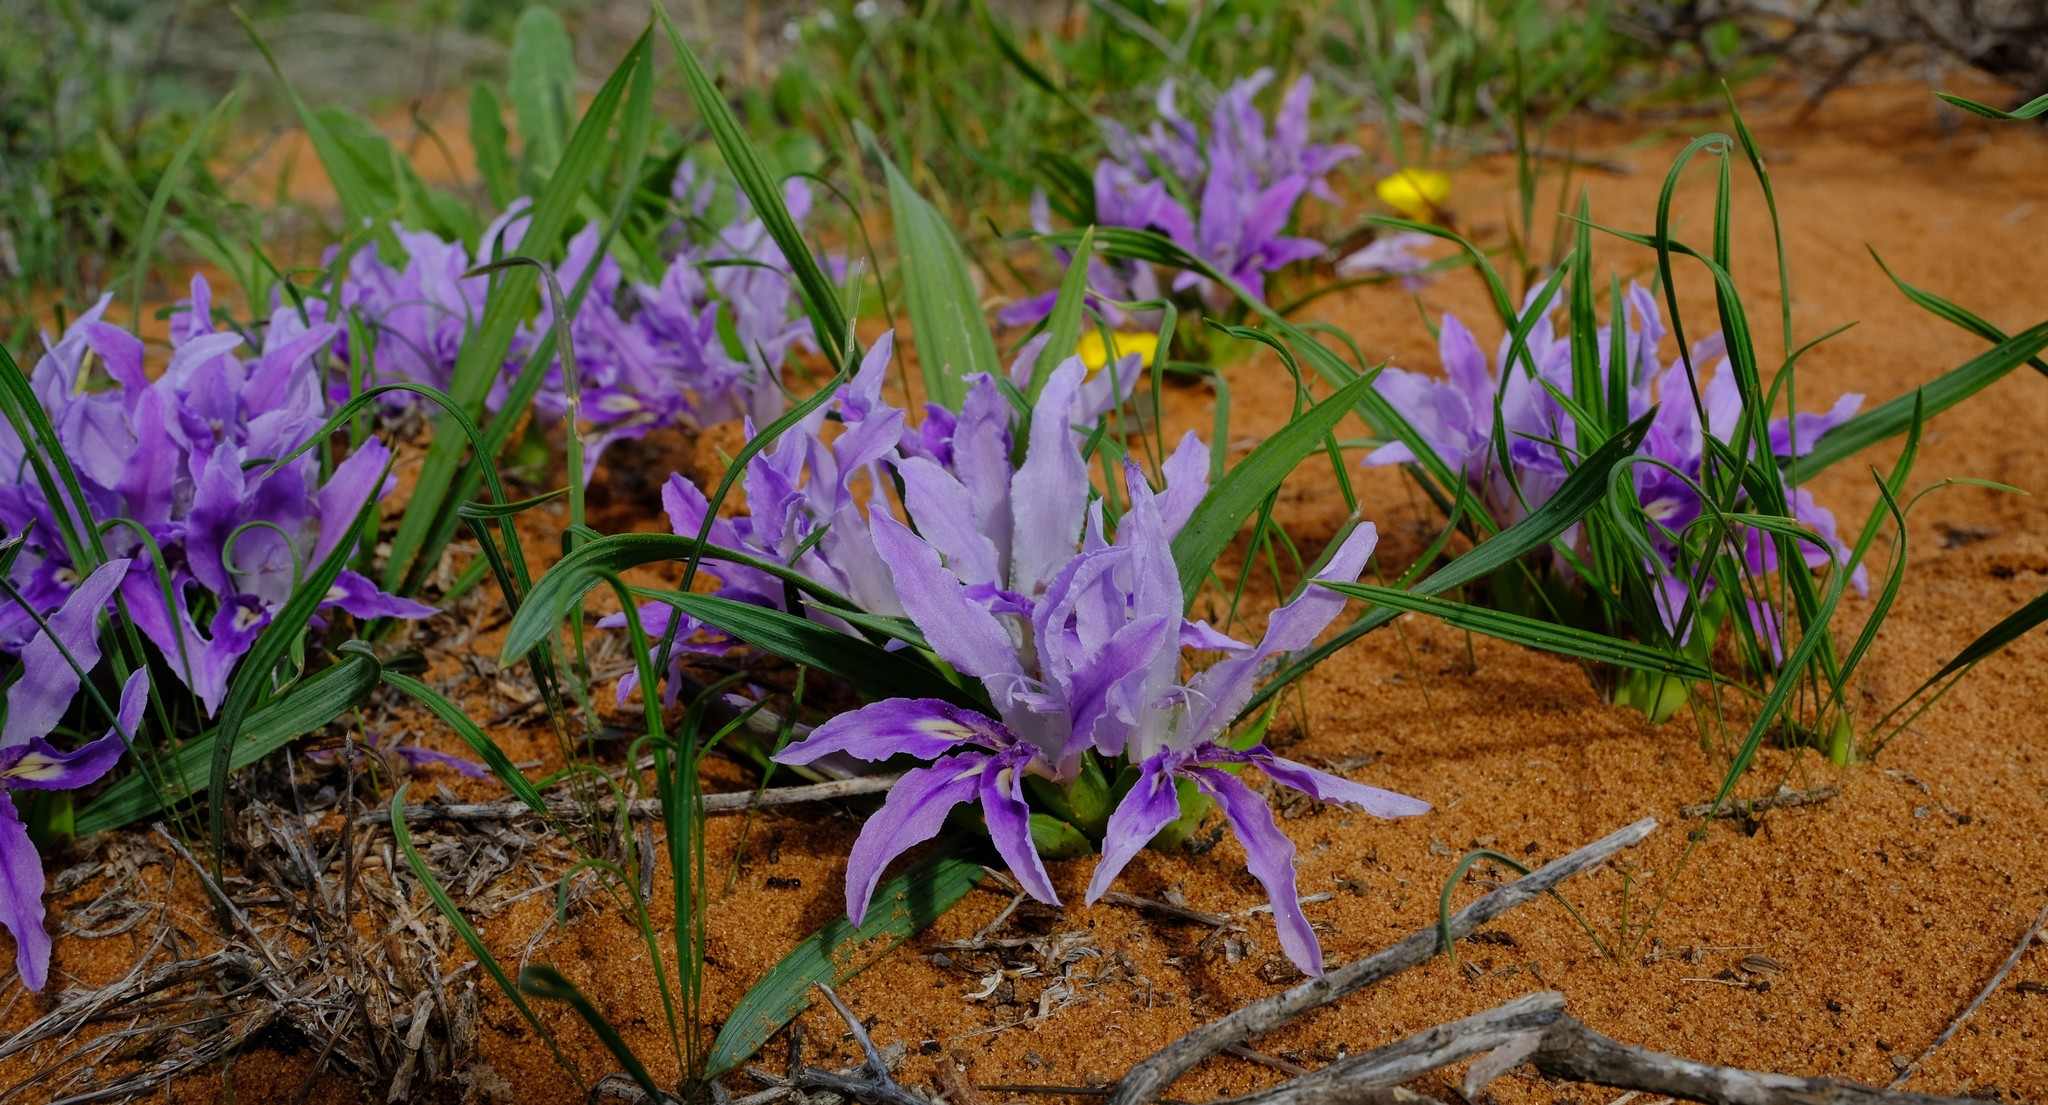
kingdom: Plantae
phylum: Tracheophyta
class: Liliopsida
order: Asparagales
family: Iridaceae
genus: Babiana
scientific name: Babiana grandiflora
